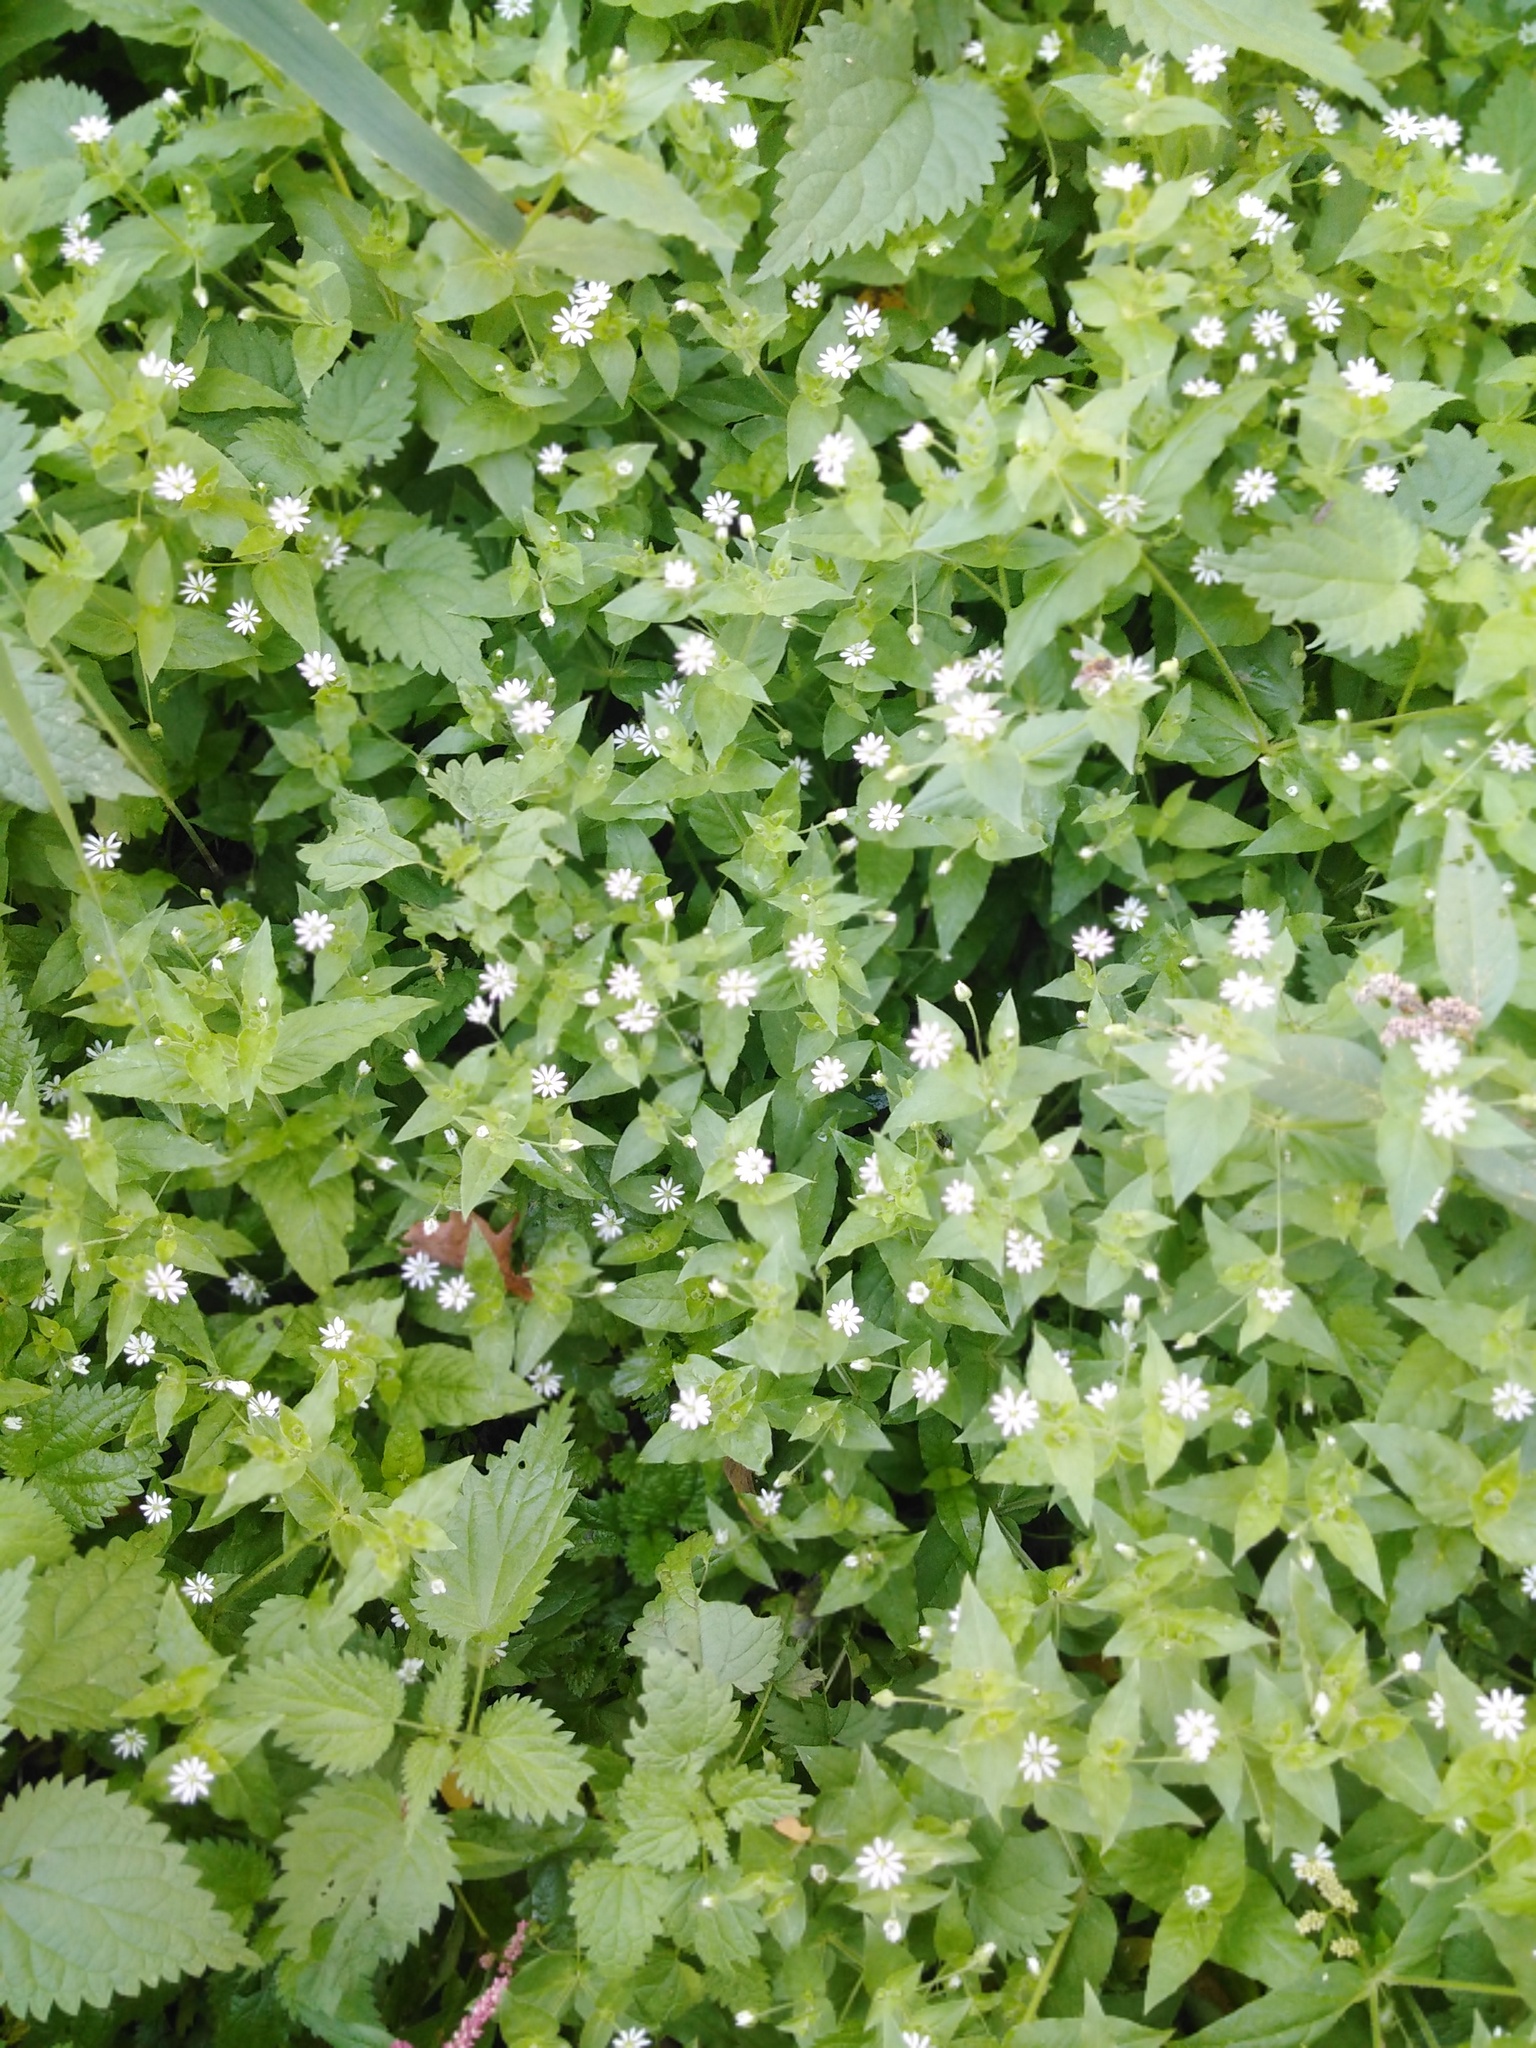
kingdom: Plantae
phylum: Tracheophyta
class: Magnoliopsida
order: Caryophyllales
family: Caryophyllaceae
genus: Stellaria
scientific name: Stellaria aquatica
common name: Water chickweed
